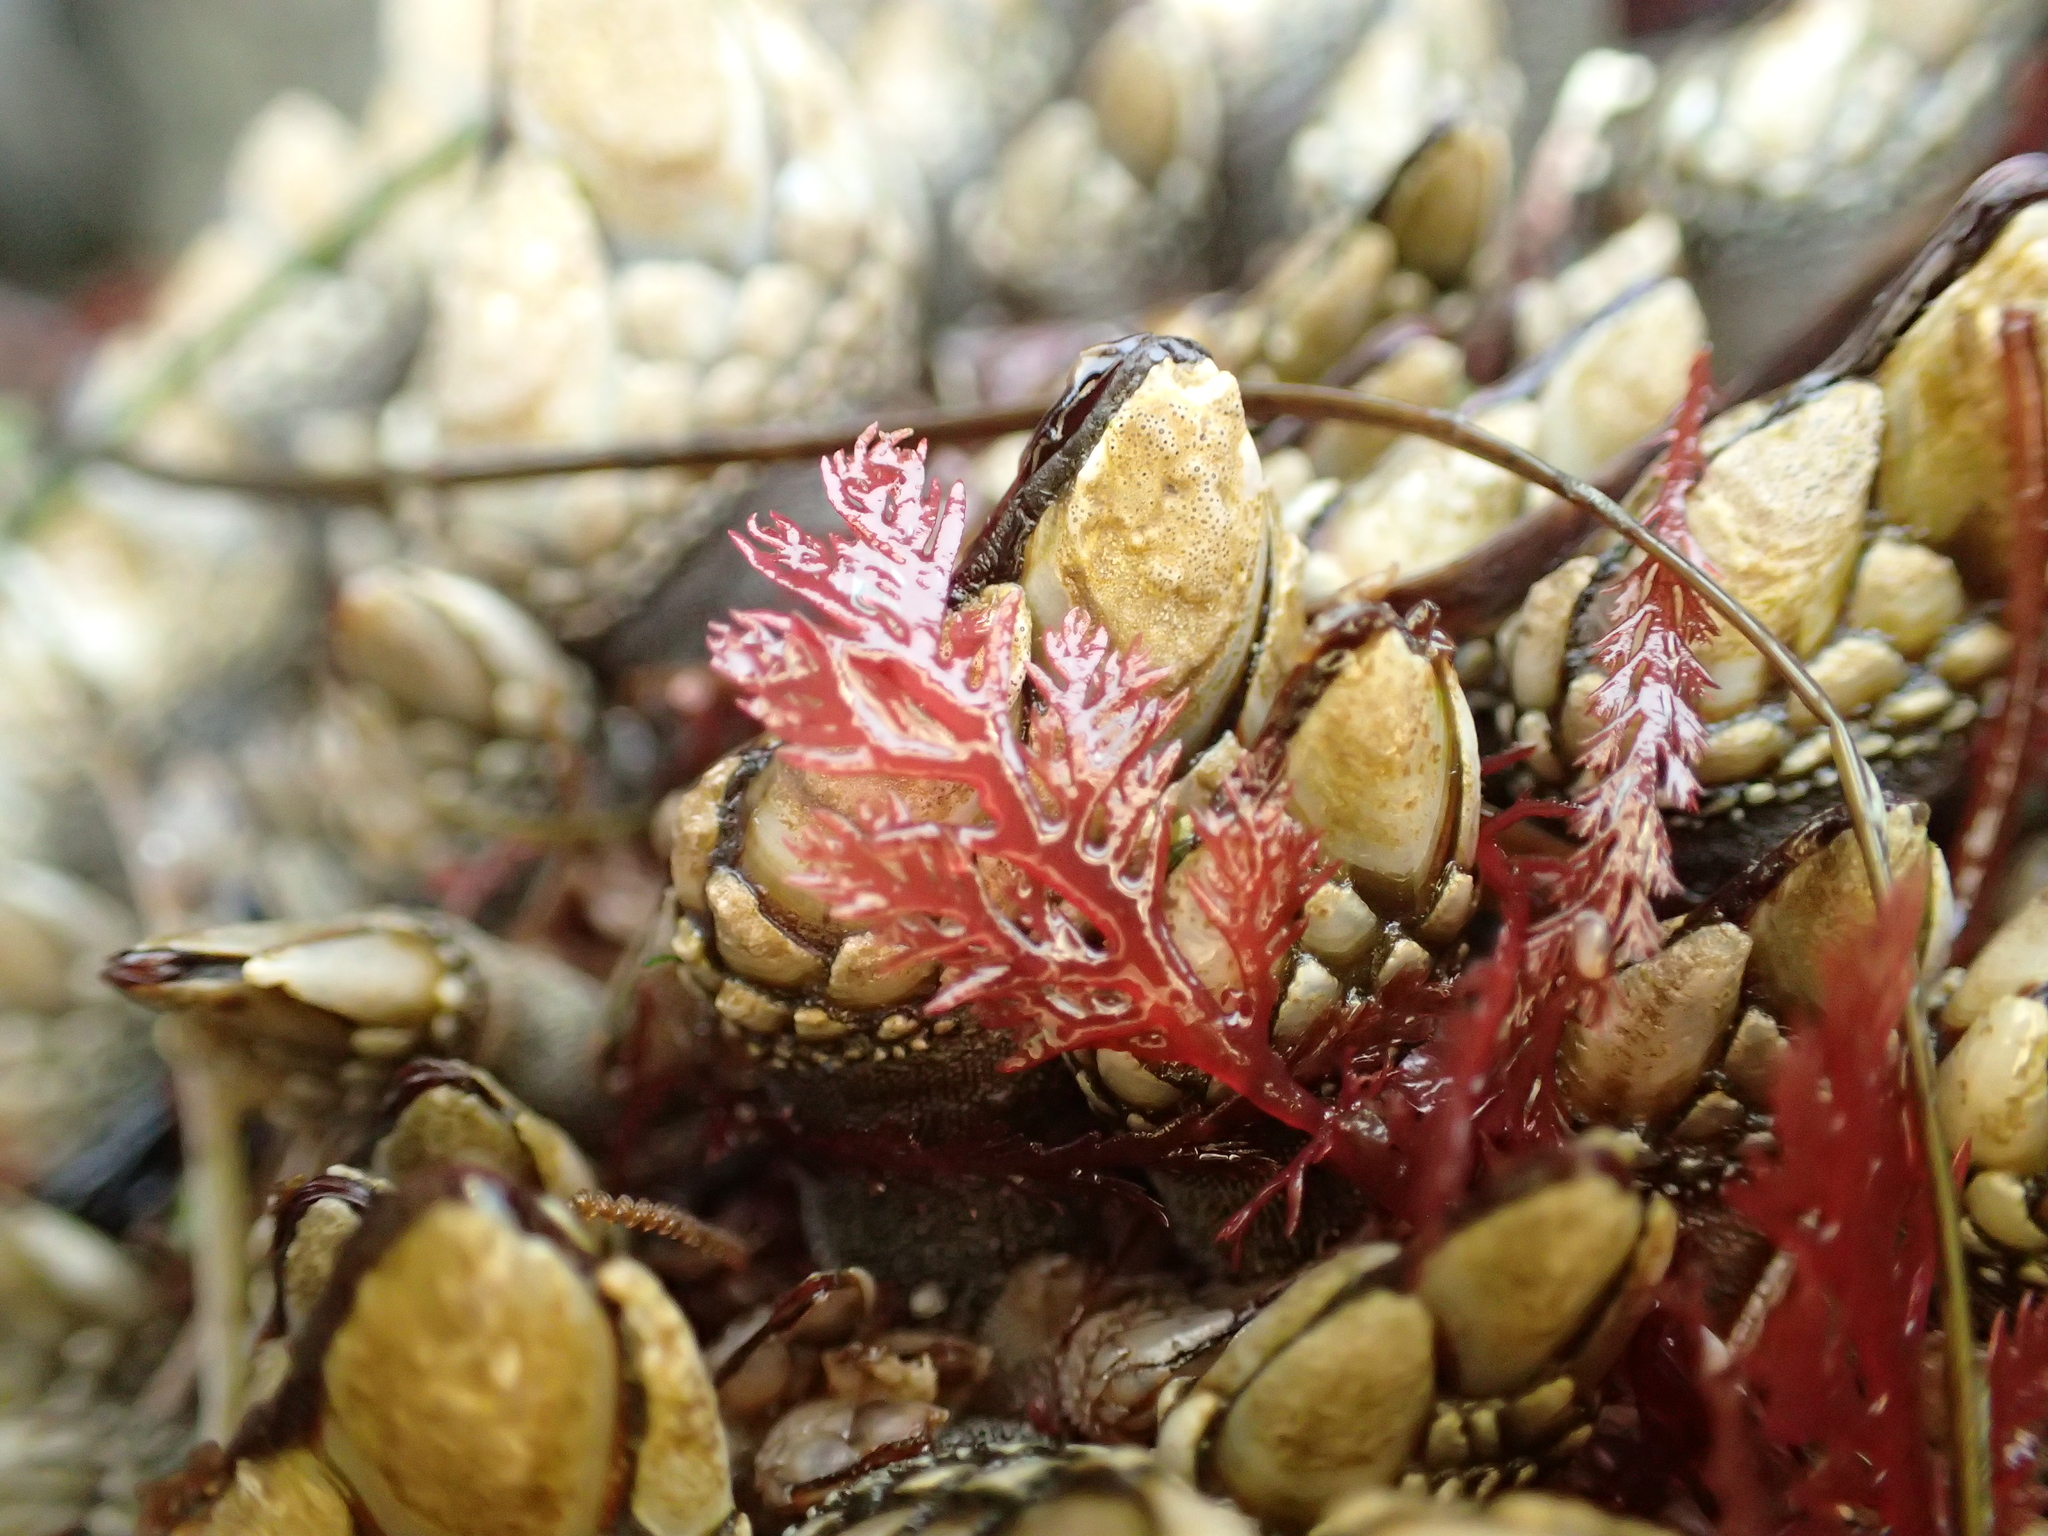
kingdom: Animalia
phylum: Arthropoda
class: Maxillopoda
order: Pedunculata
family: Pollicipedidae
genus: Pollicipes
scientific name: Pollicipes polymerus
